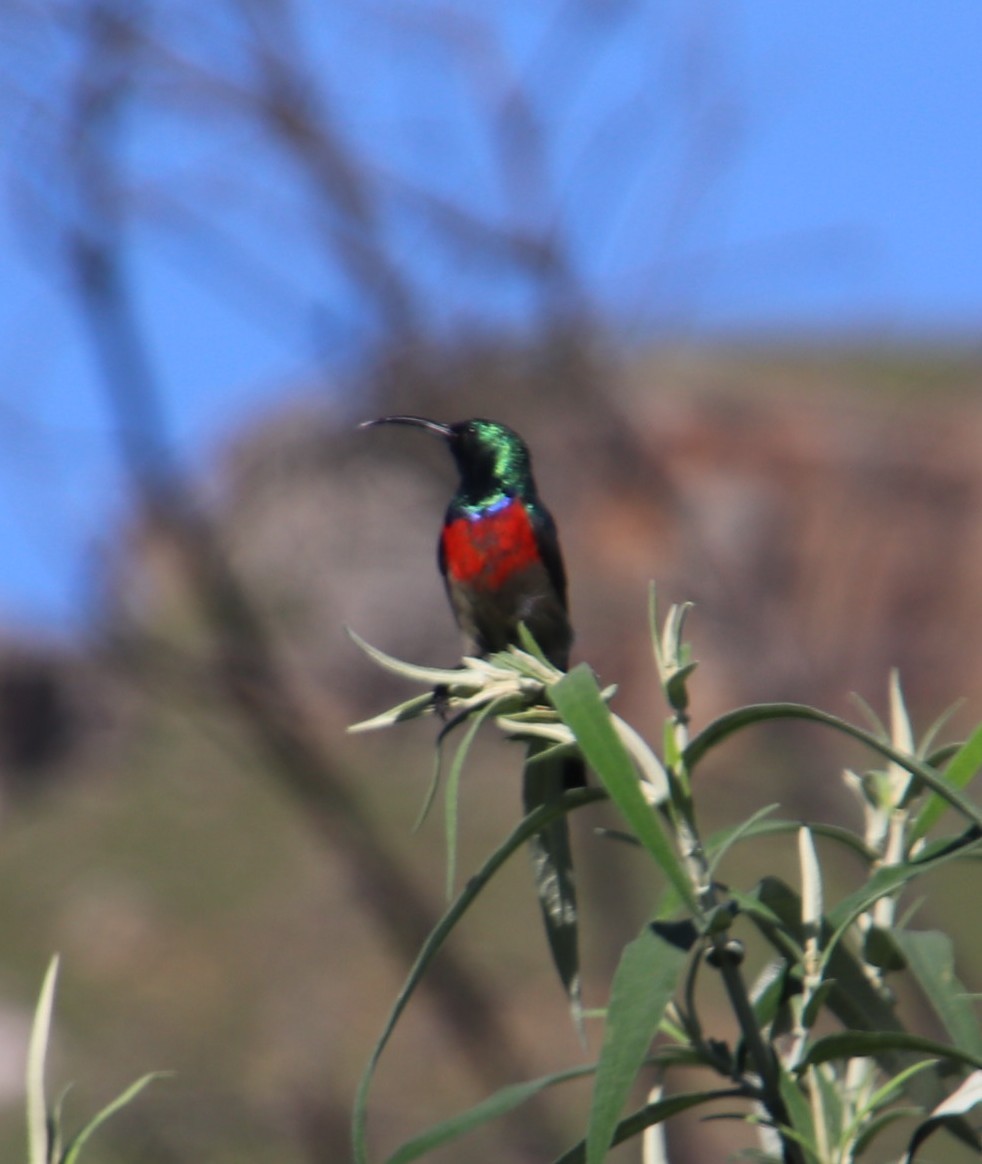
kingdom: Animalia
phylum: Chordata
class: Aves
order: Passeriformes
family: Nectariniidae
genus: Cinnyris
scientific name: Cinnyris afer
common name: Greater double-collared sunbird
